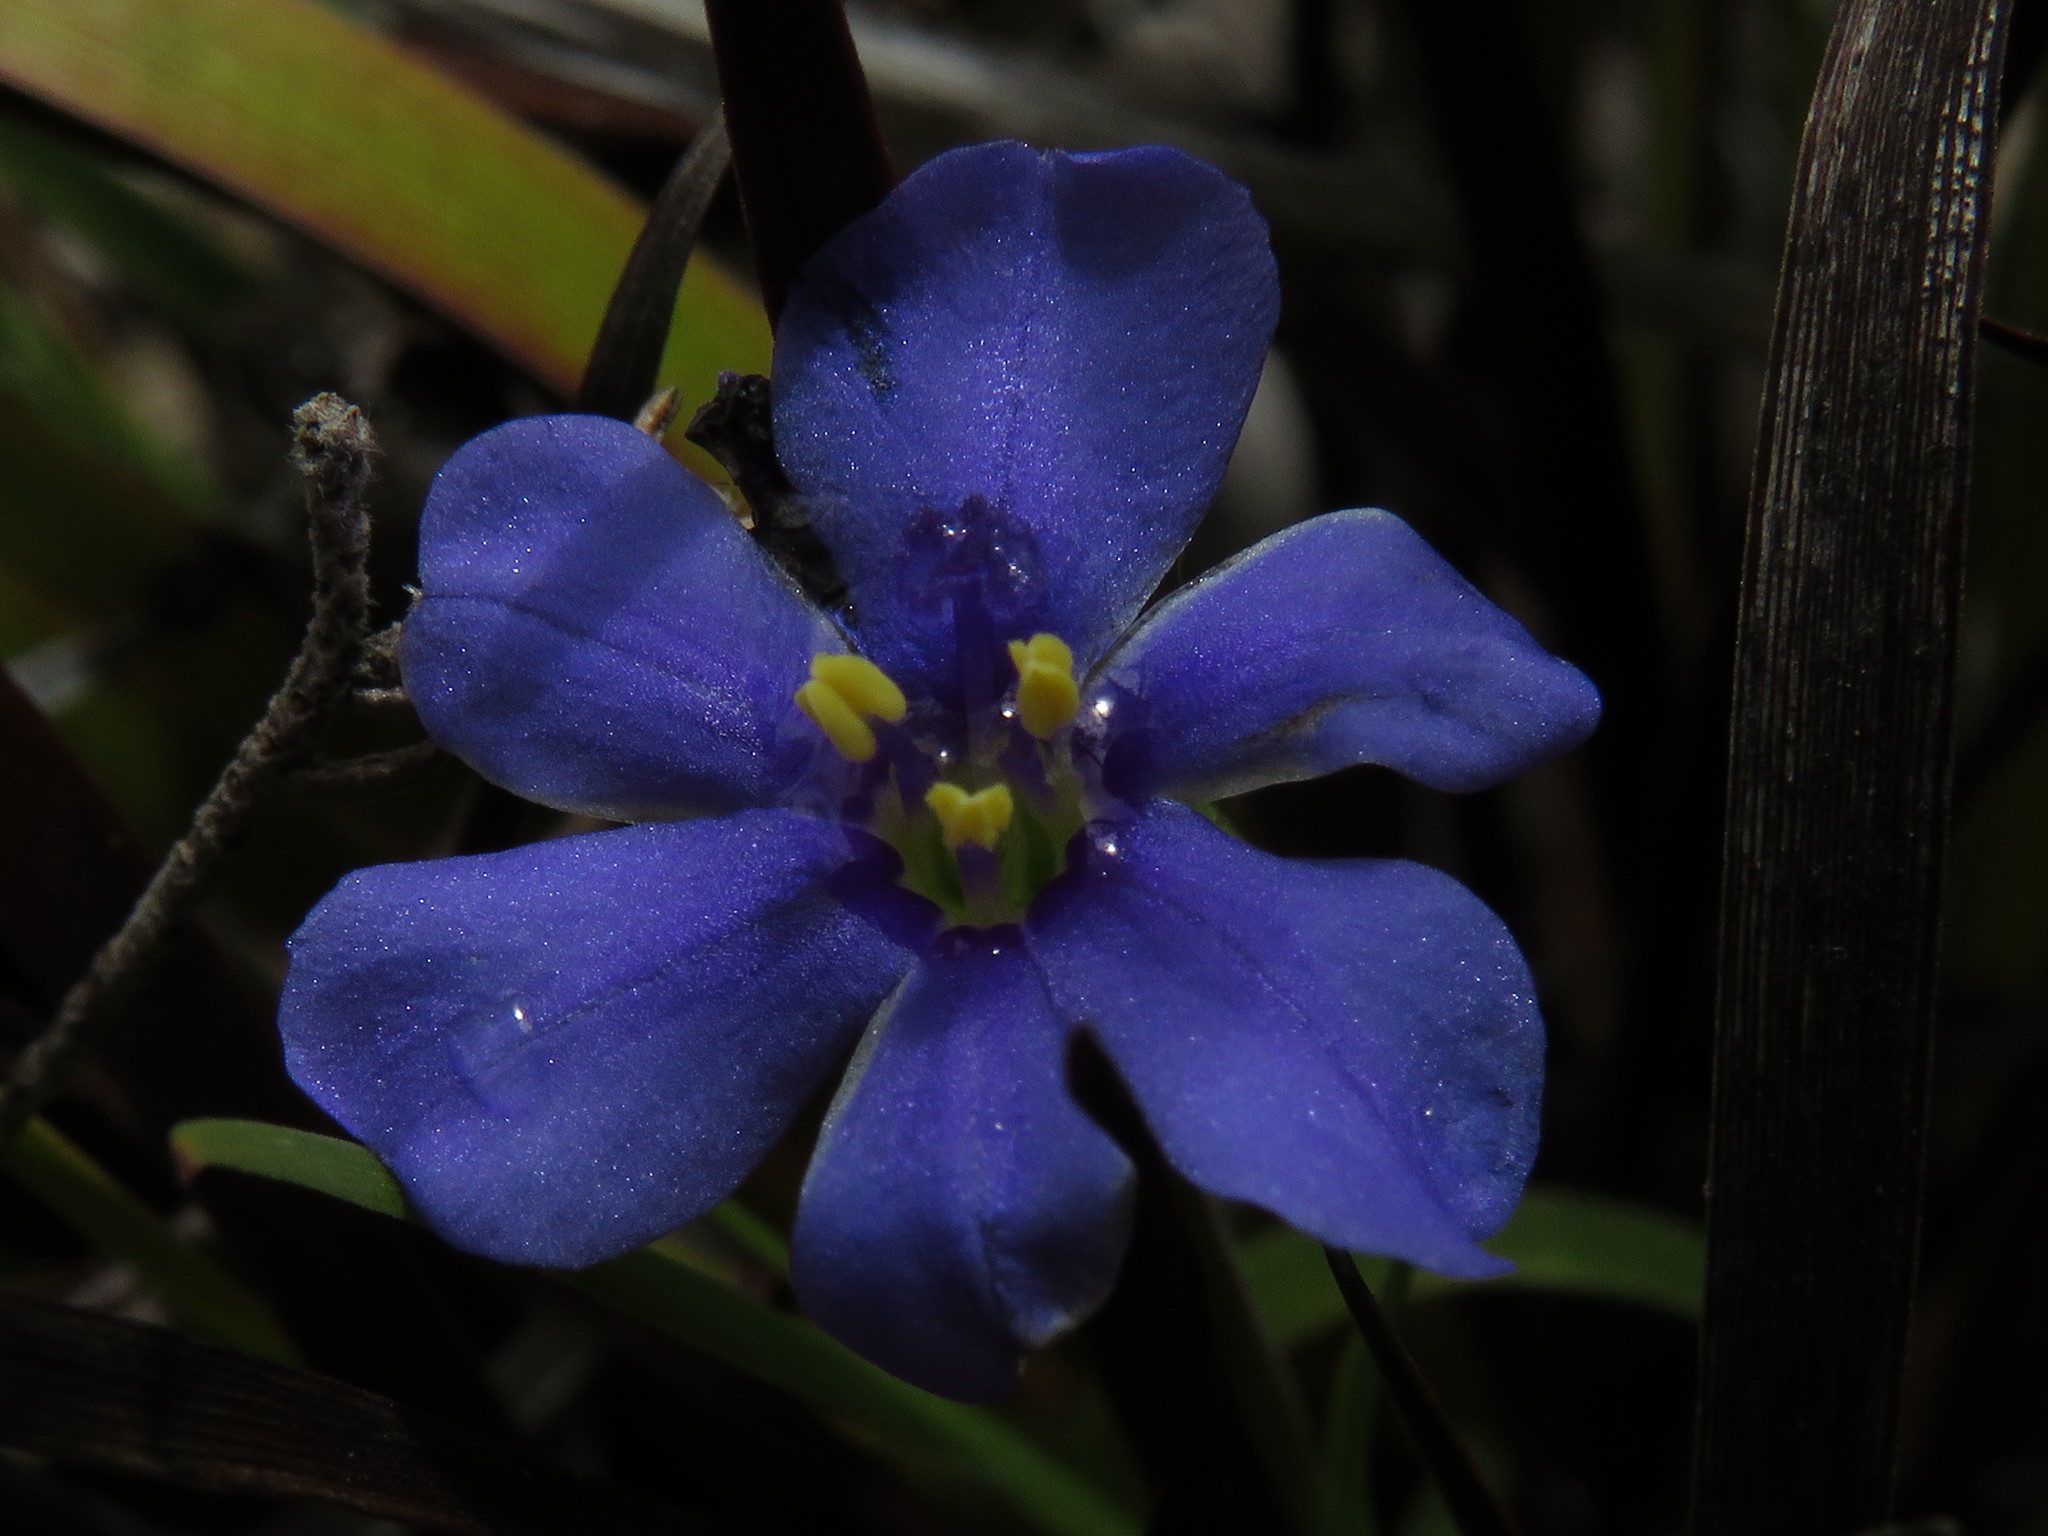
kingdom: Plantae
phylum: Tracheophyta
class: Liliopsida
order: Asparagales
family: Iridaceae
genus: Aristea
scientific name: Aristea africana
